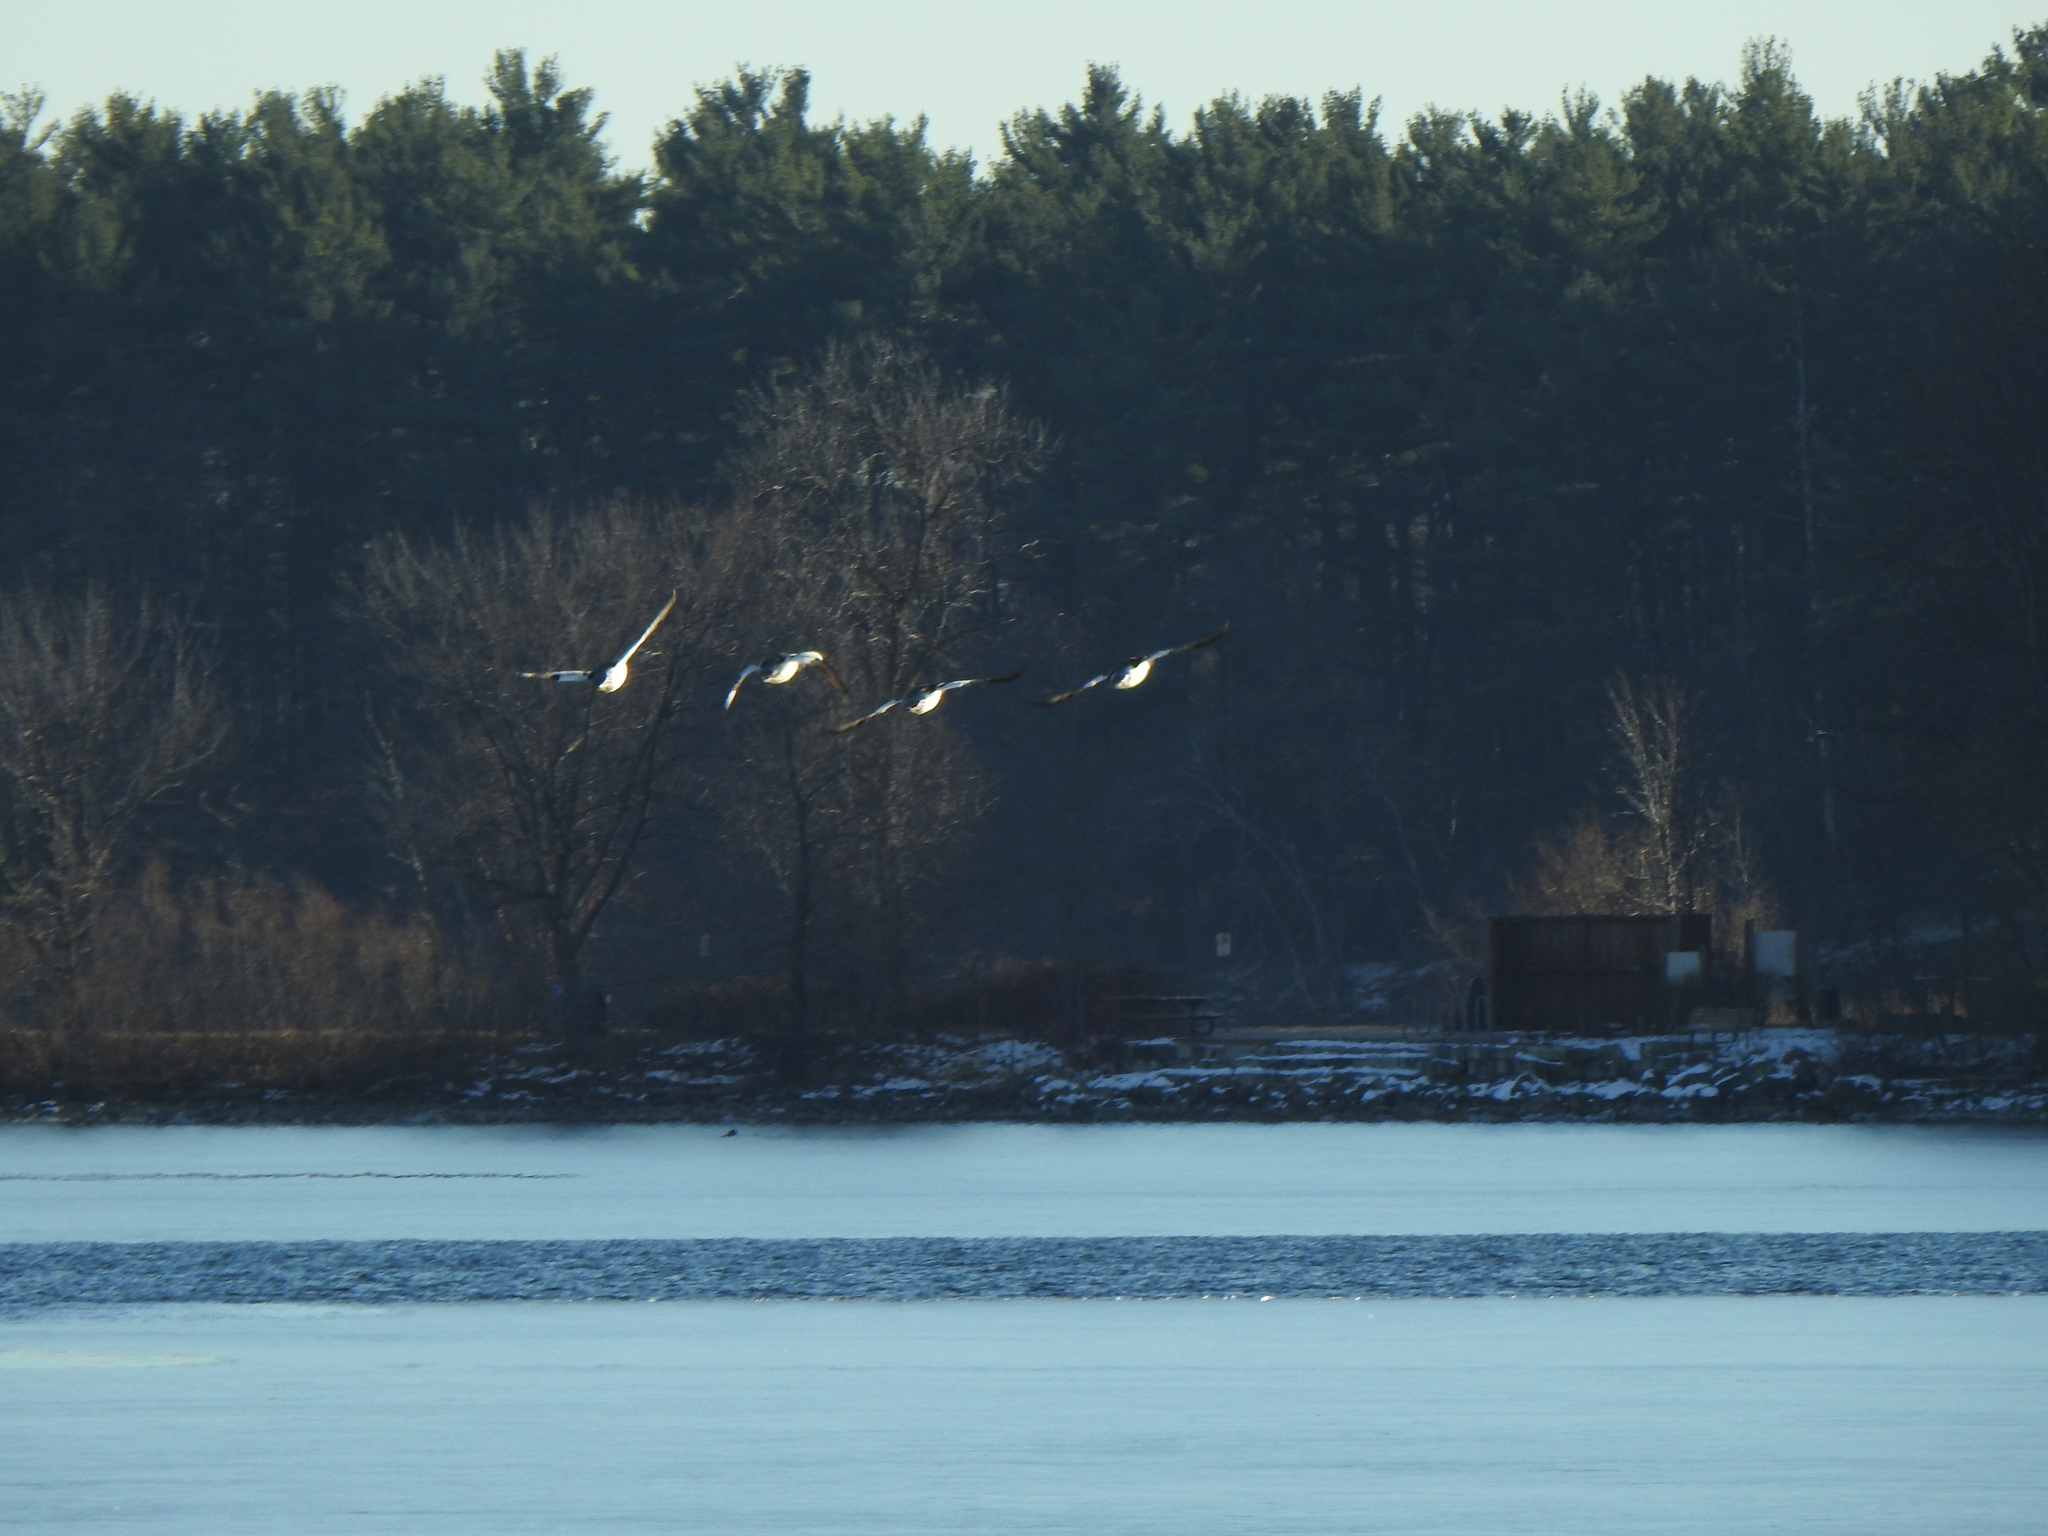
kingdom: Animalia
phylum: Chordata
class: Aves
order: Anseriformes
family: Anatidae
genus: Mergus
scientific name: Mergus merganser
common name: Common merganser
